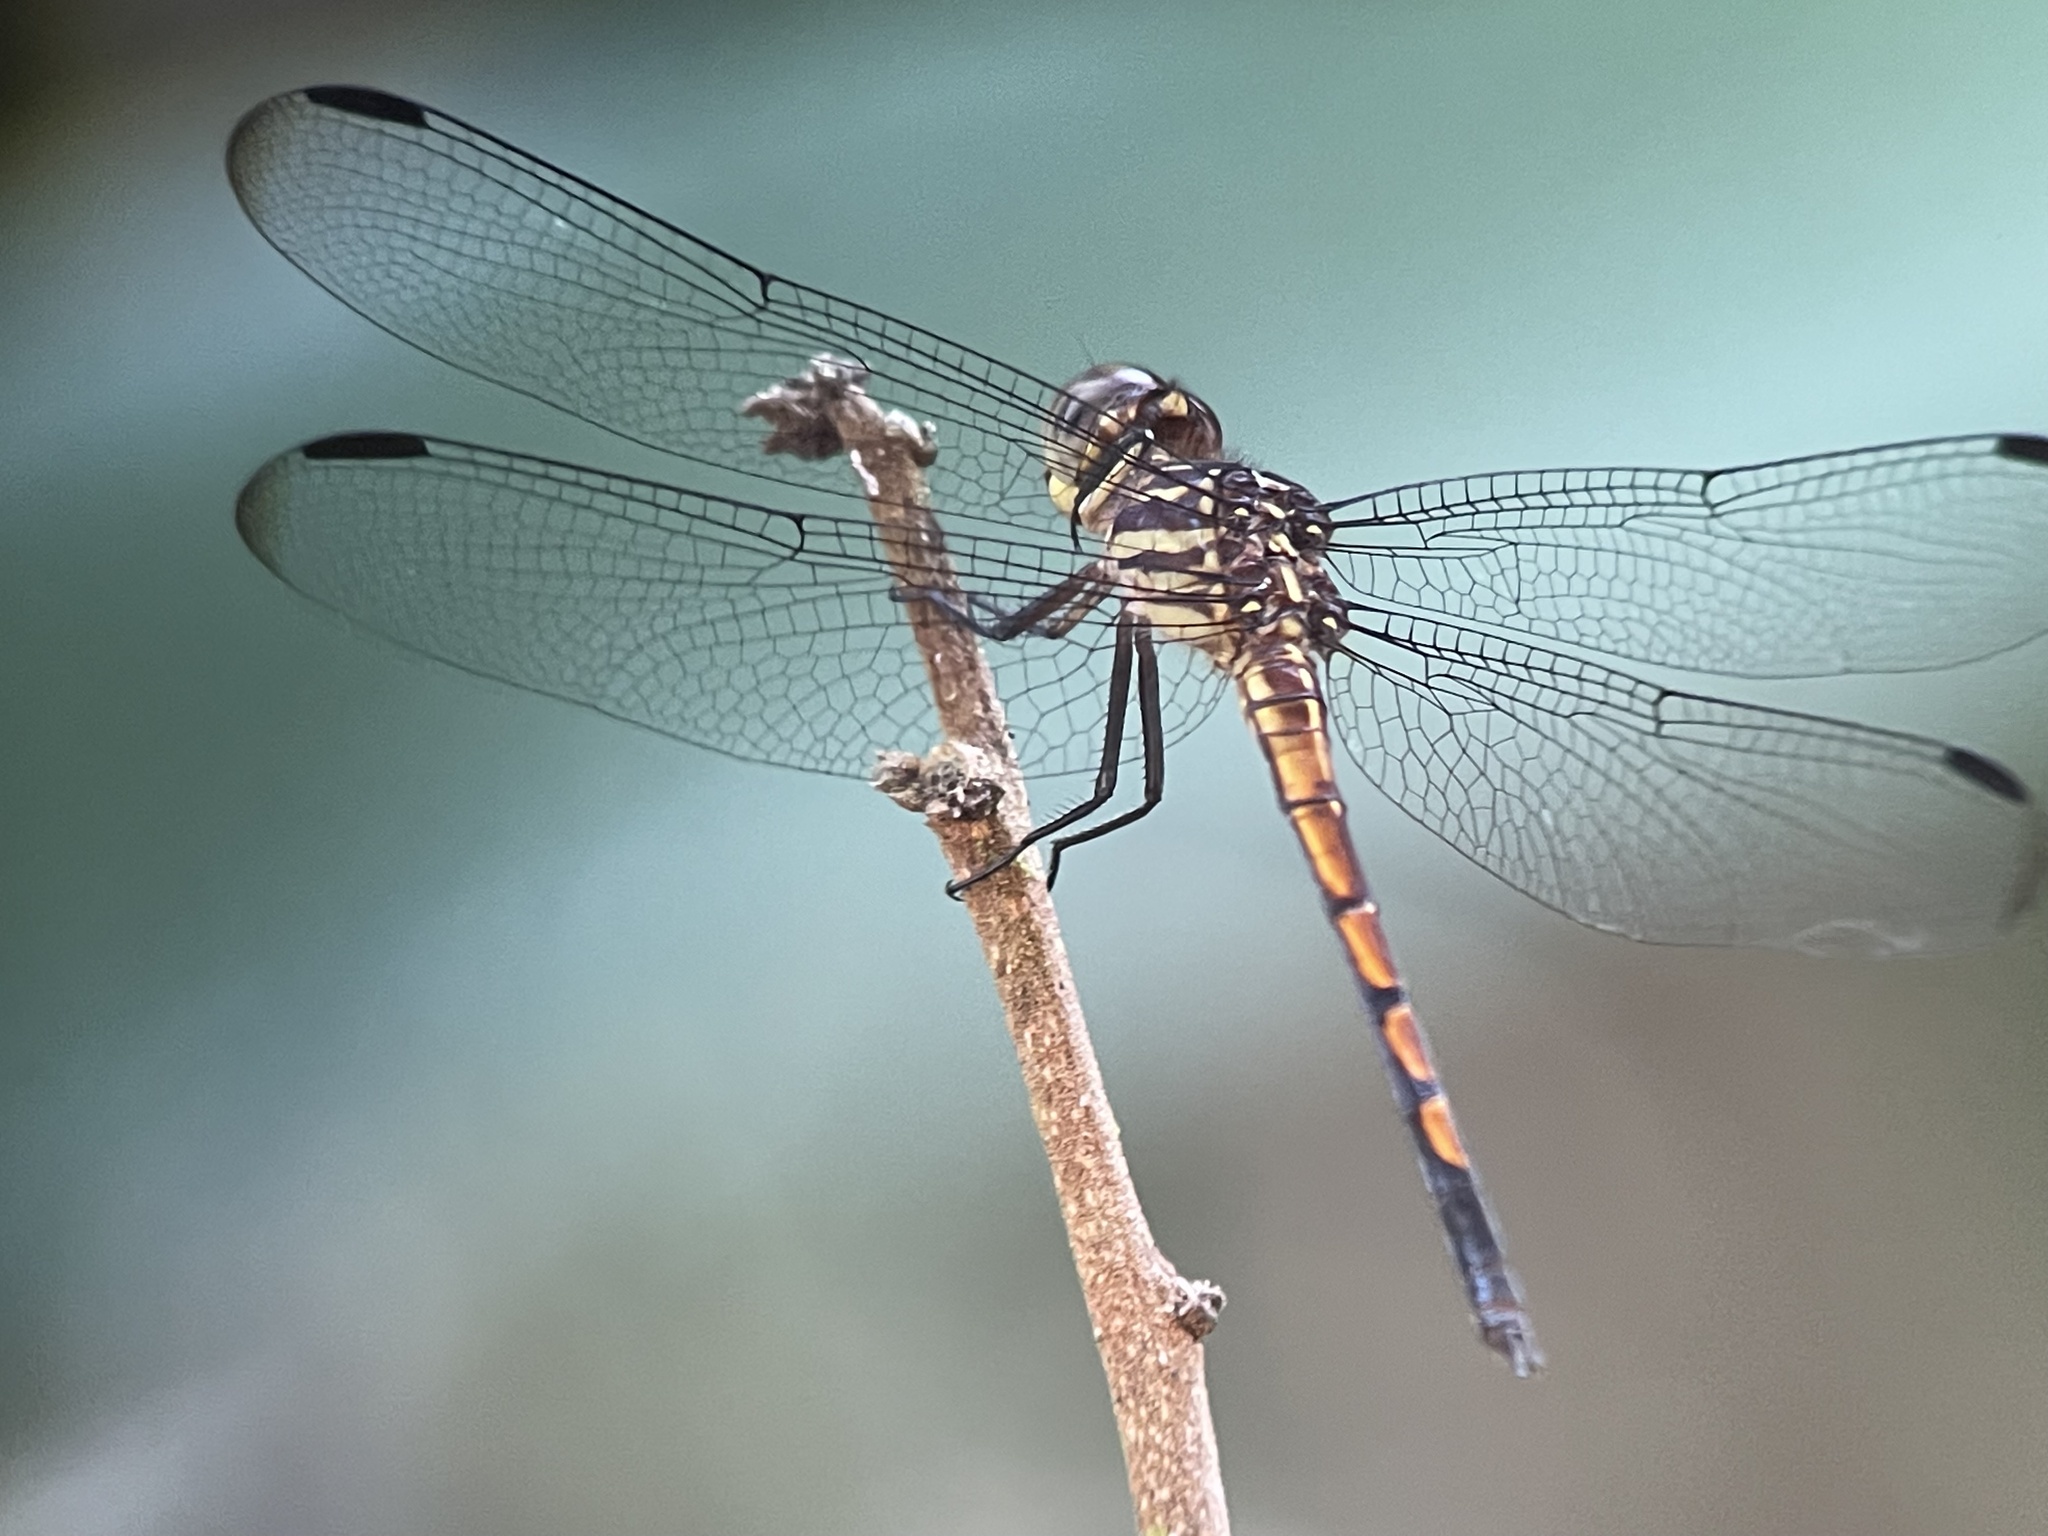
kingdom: Animalia
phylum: Arthropoda
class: Insecta
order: Odonata
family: Libellulidae
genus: Cannaphila
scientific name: Cannaphila insularis
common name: Gray-waisted skimmer
